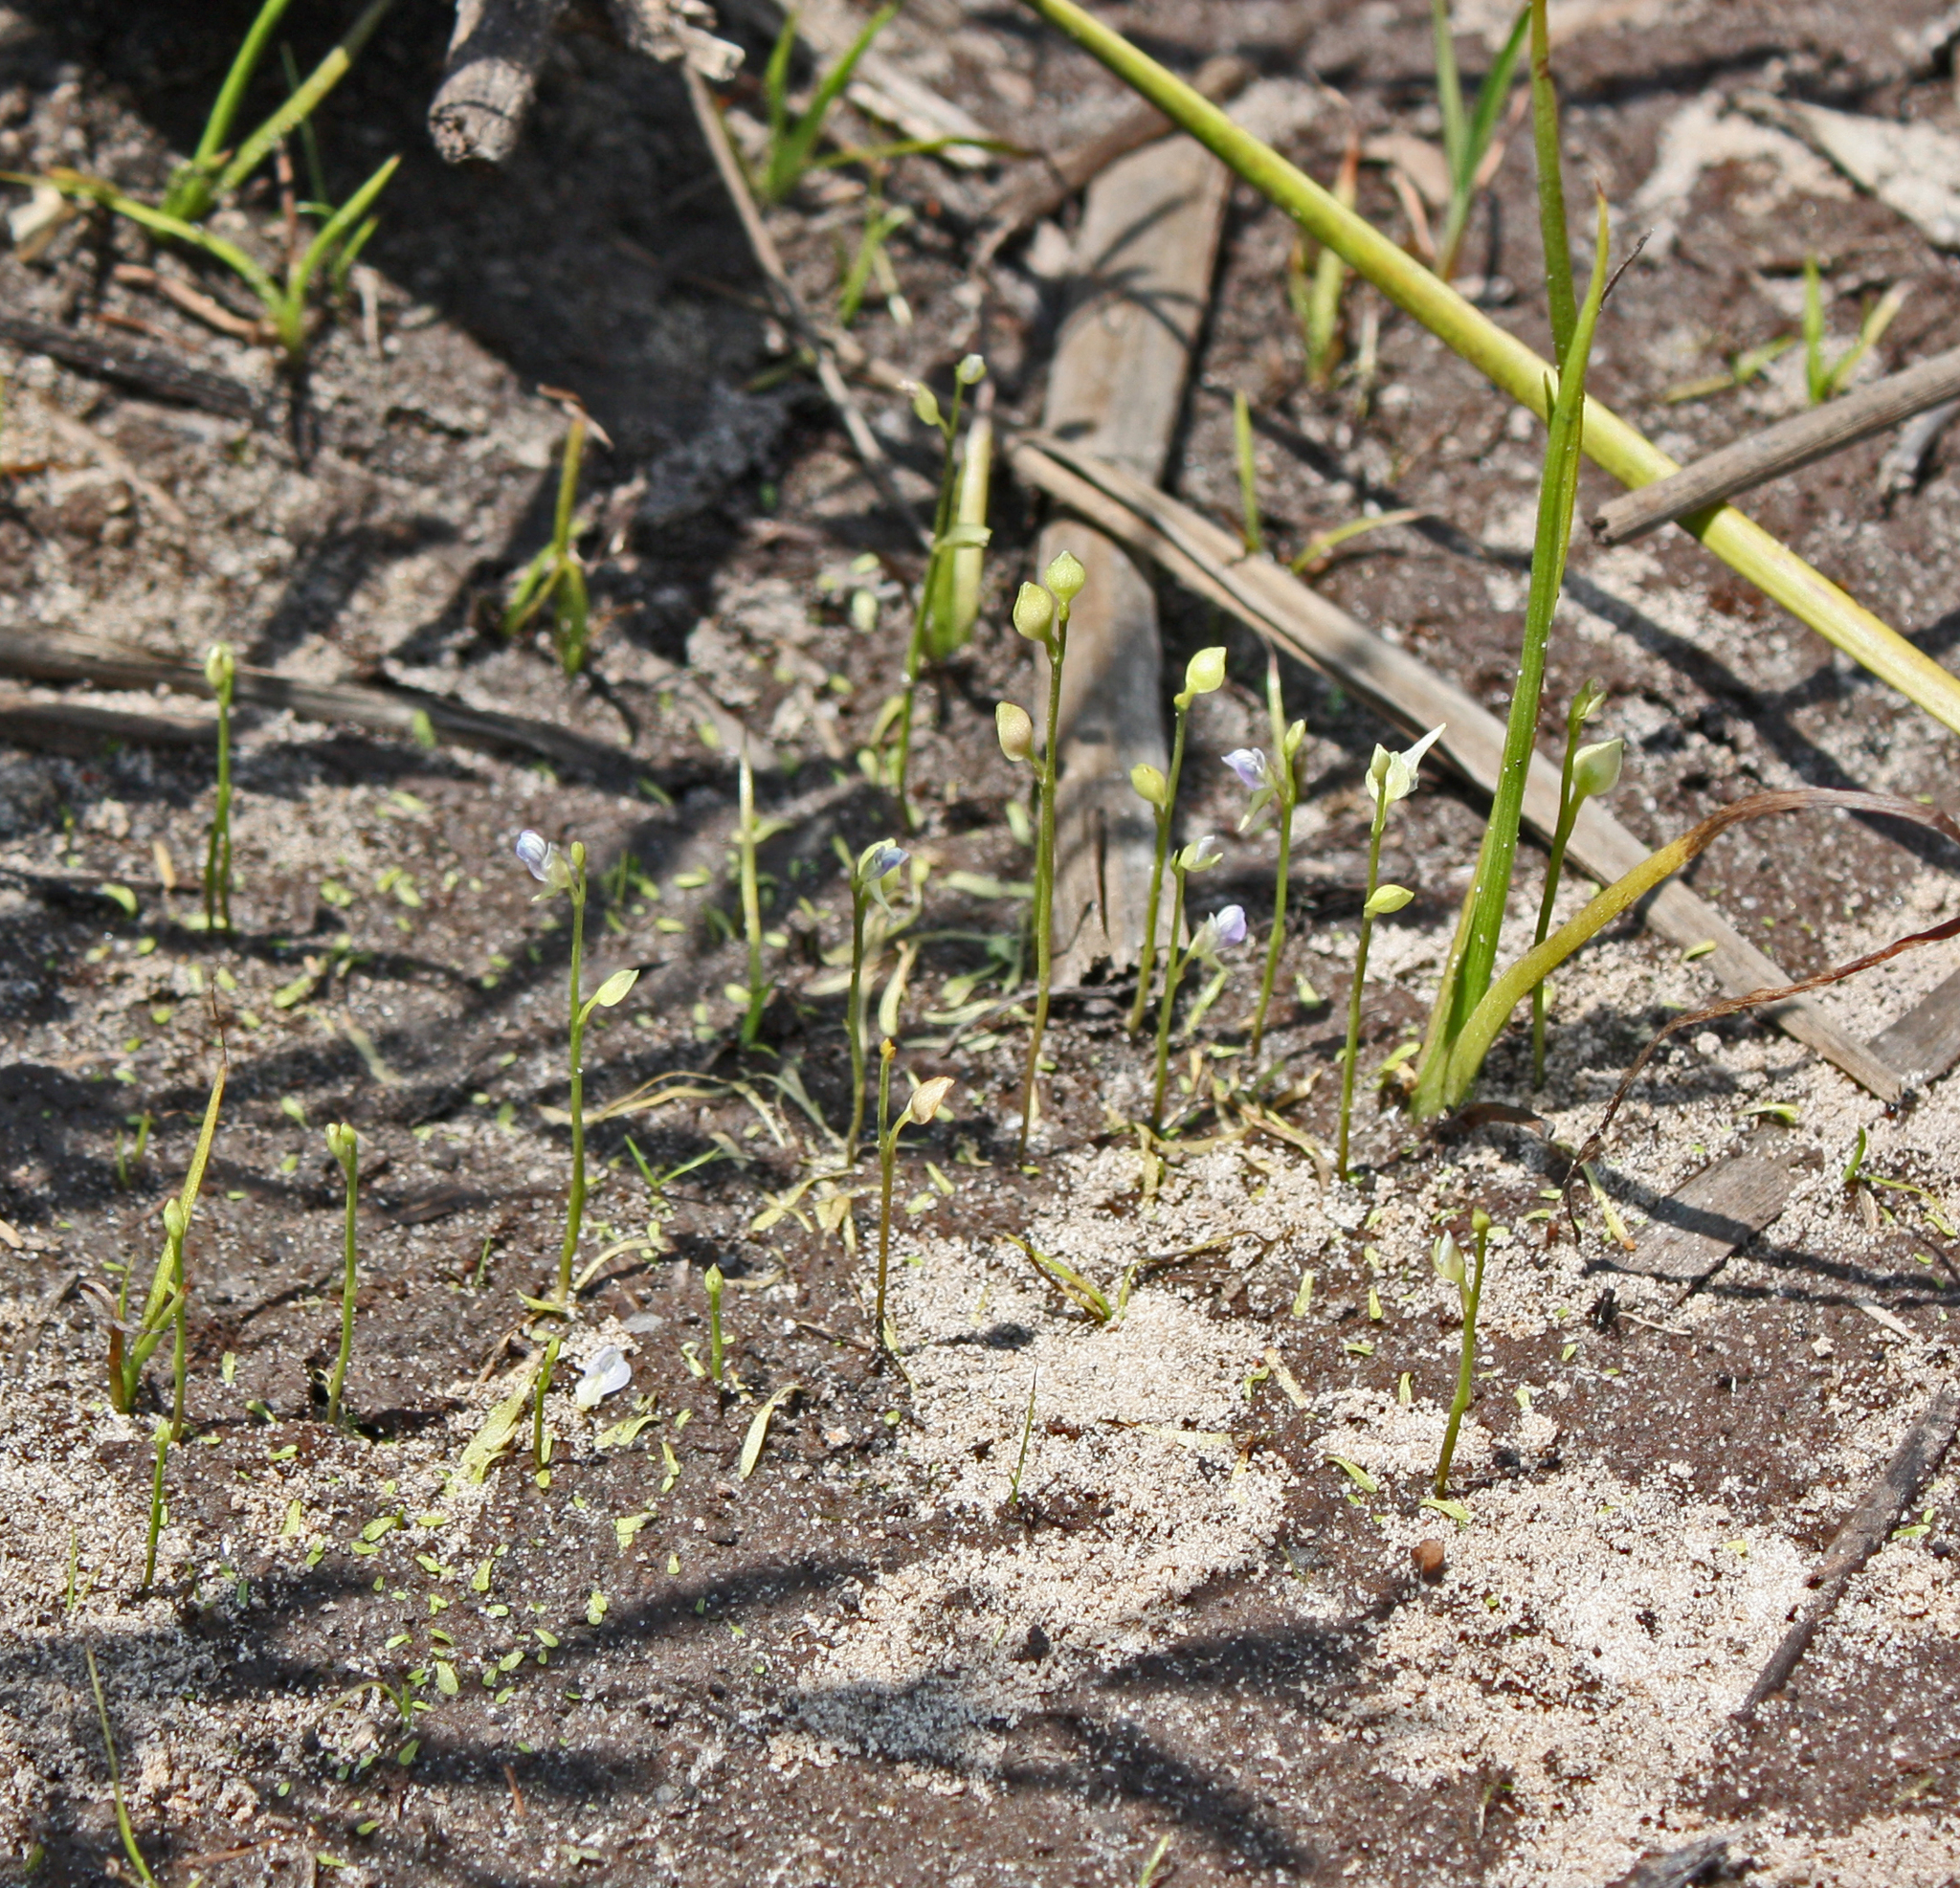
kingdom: Plantae
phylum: Tracheophyta
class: Magnoliopsida
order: Lamiales
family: Lentibulariaceae
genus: Utricularia
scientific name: Utricularia uliginosa
